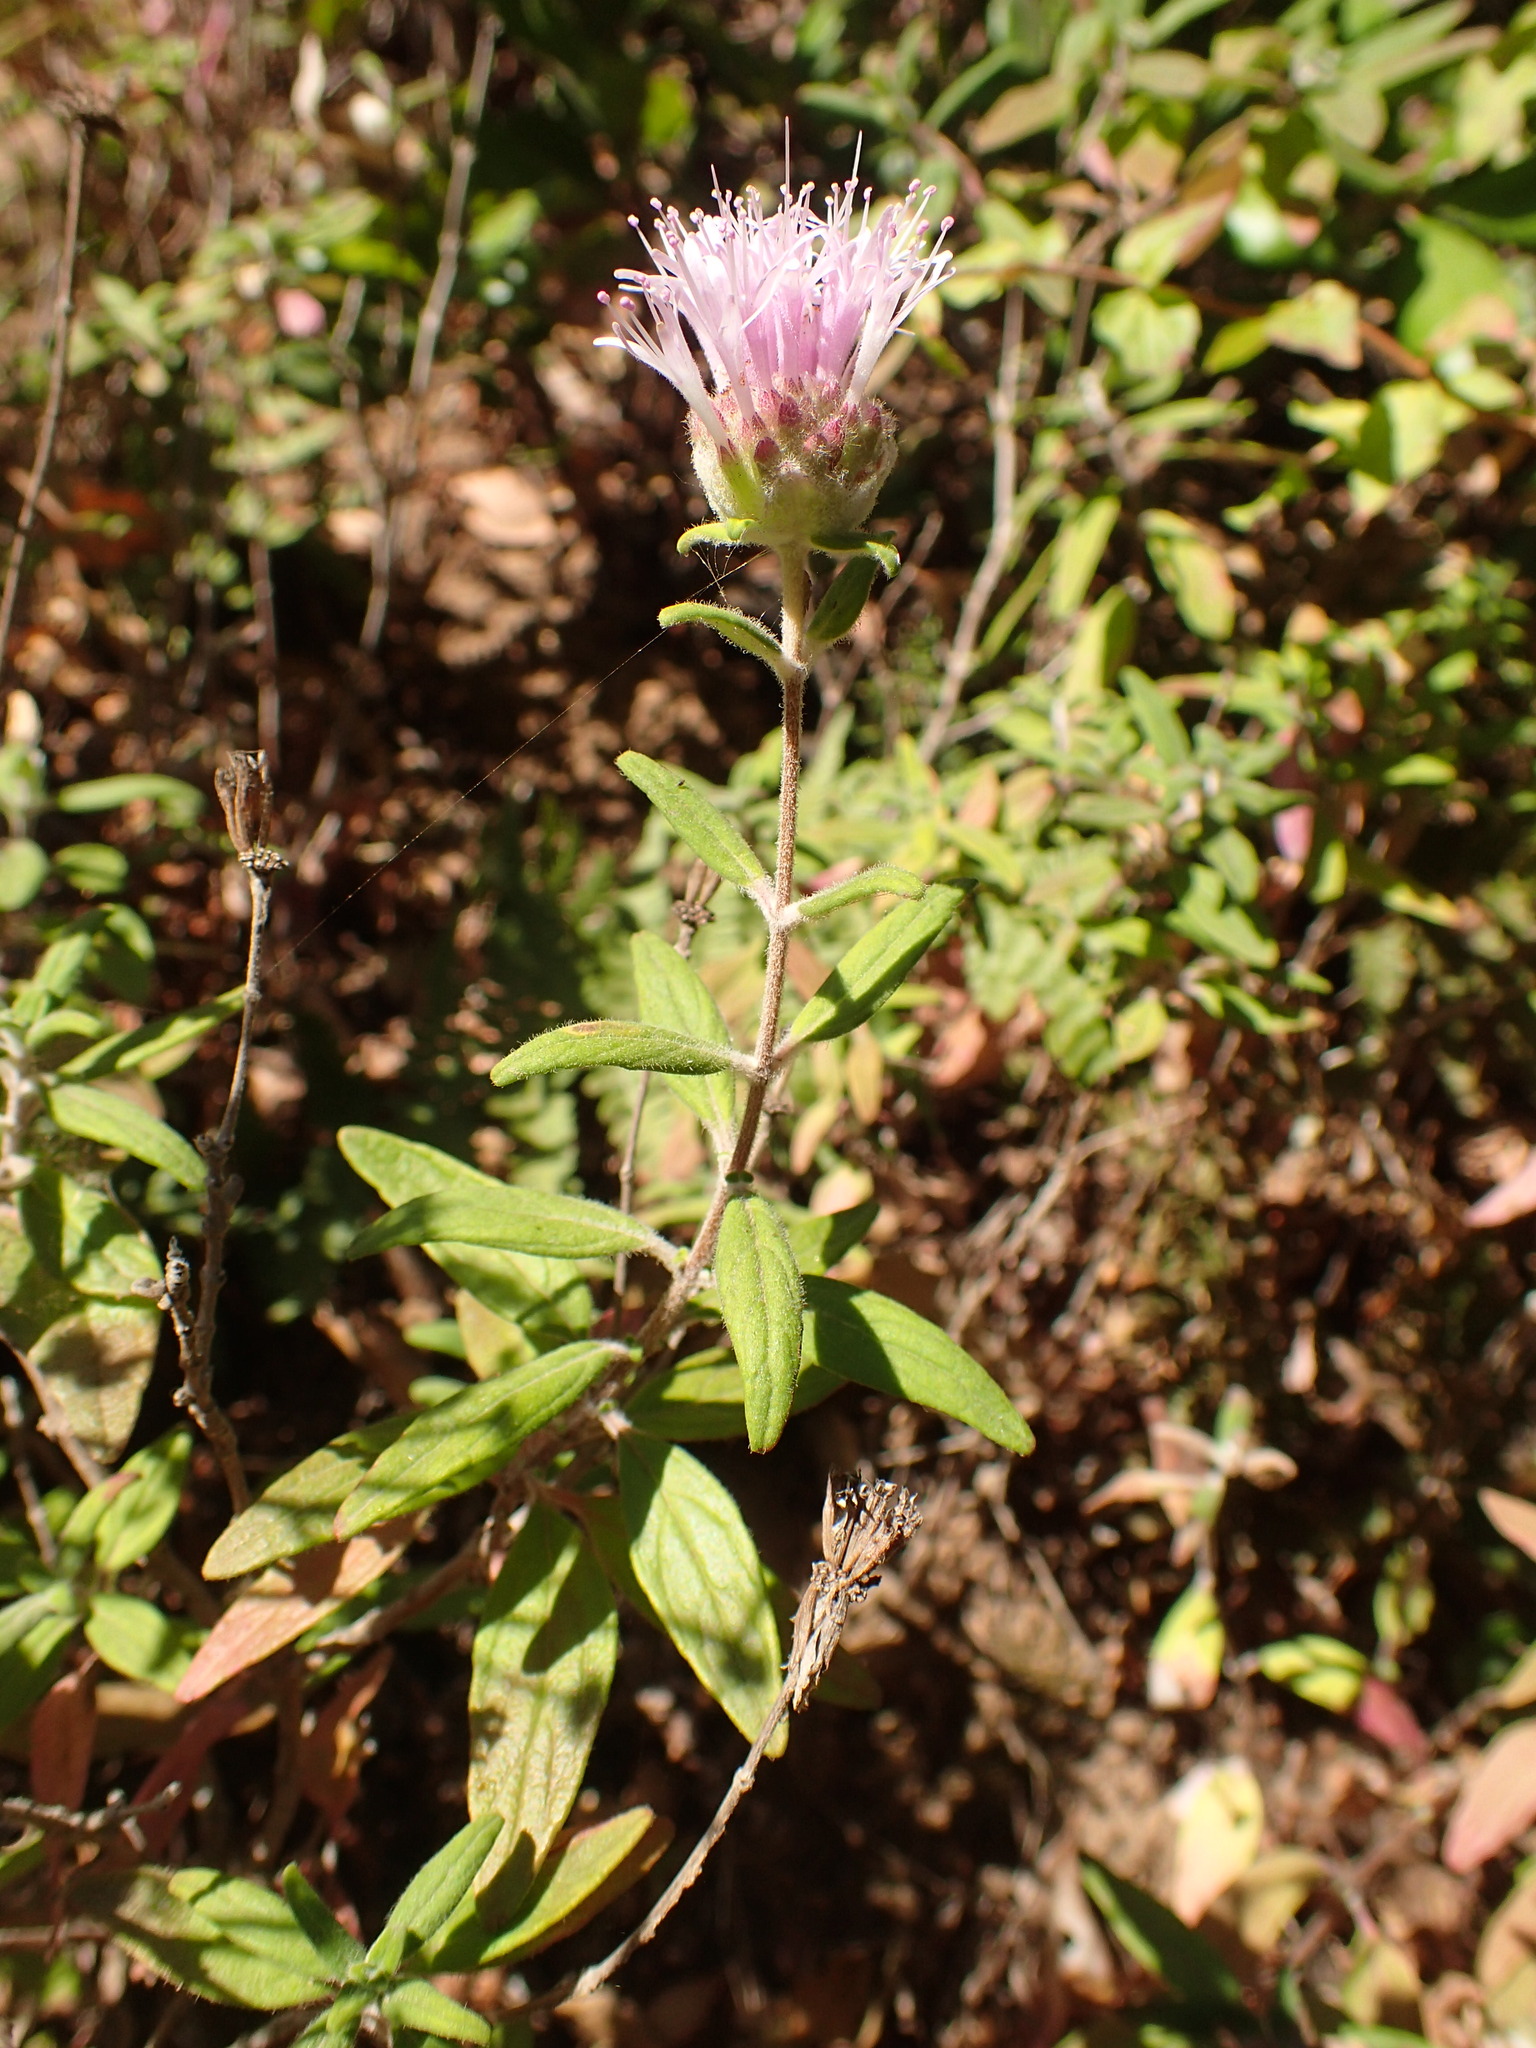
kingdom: Plantae
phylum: Tracheophyta
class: Magnoliopsida
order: Lamiales
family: Lamiaceae
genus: Monardella
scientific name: Monardella hypoleuca
